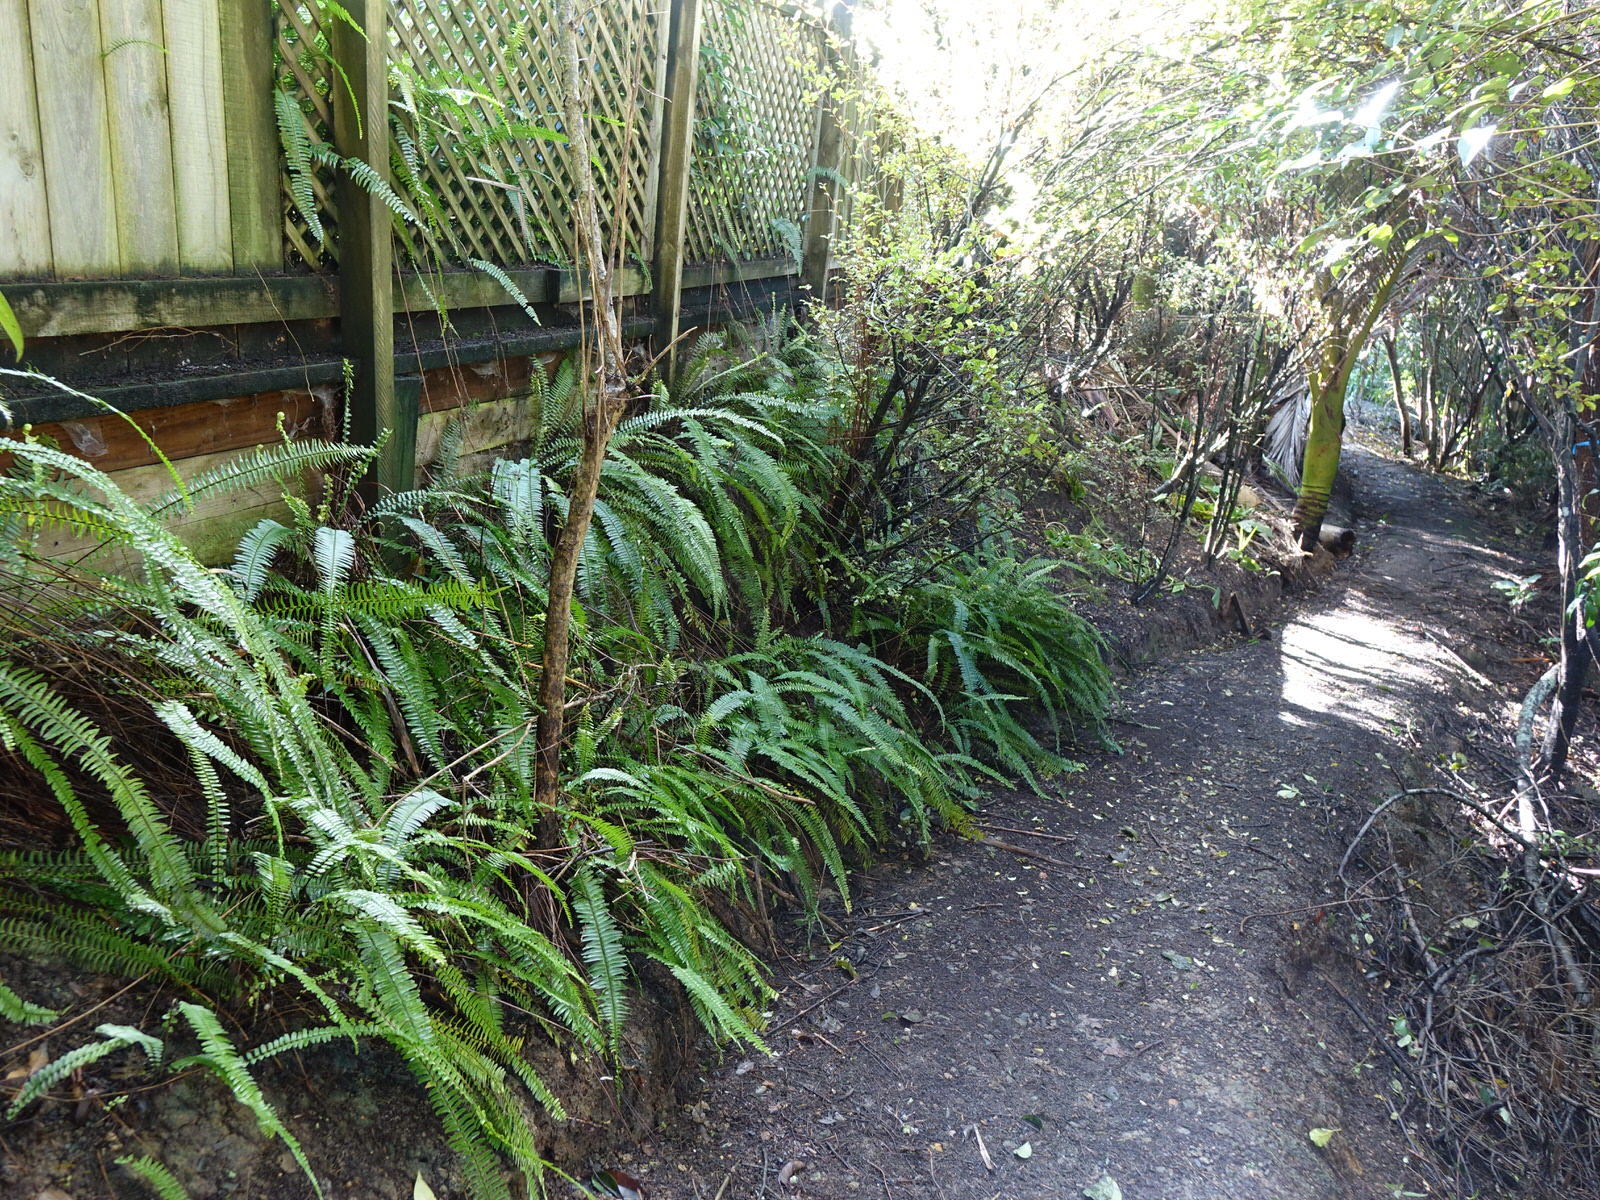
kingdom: Plantae
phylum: Tracheophyta
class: Polypodiopsida
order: Polypodiales
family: Nephrolepidaceae
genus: Nephrolepis
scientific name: Nephrolepis cordifolia
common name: Narrow swordfern
